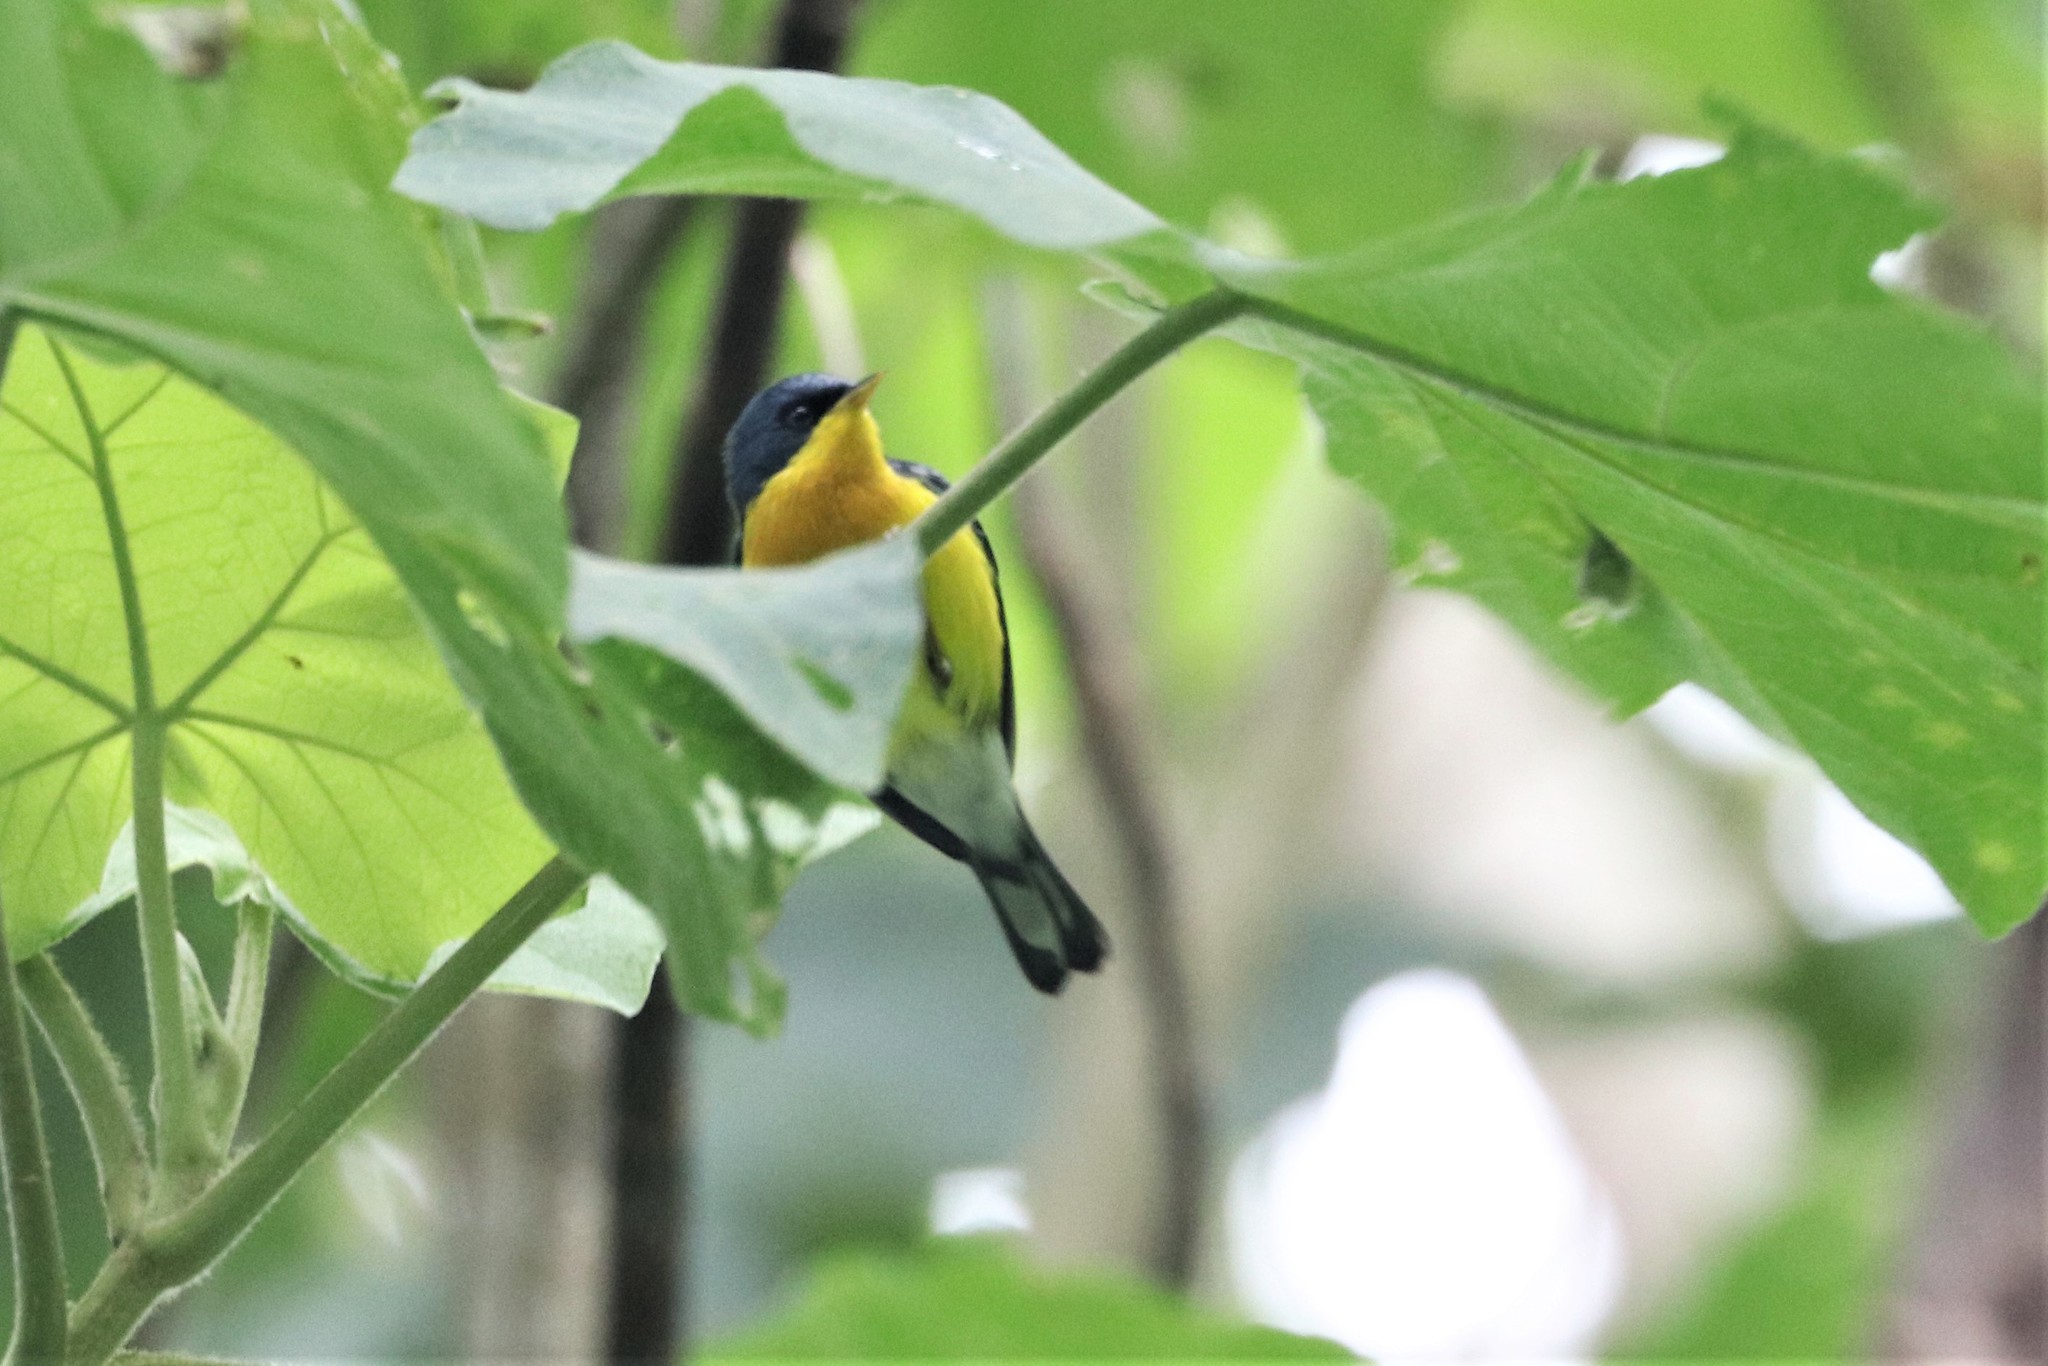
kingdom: Animalia
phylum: Chordata
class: Aves
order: Passeriformes
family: Parulidae
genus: Setophaga
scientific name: Setophaga pitiayumi
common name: Tropical parula
